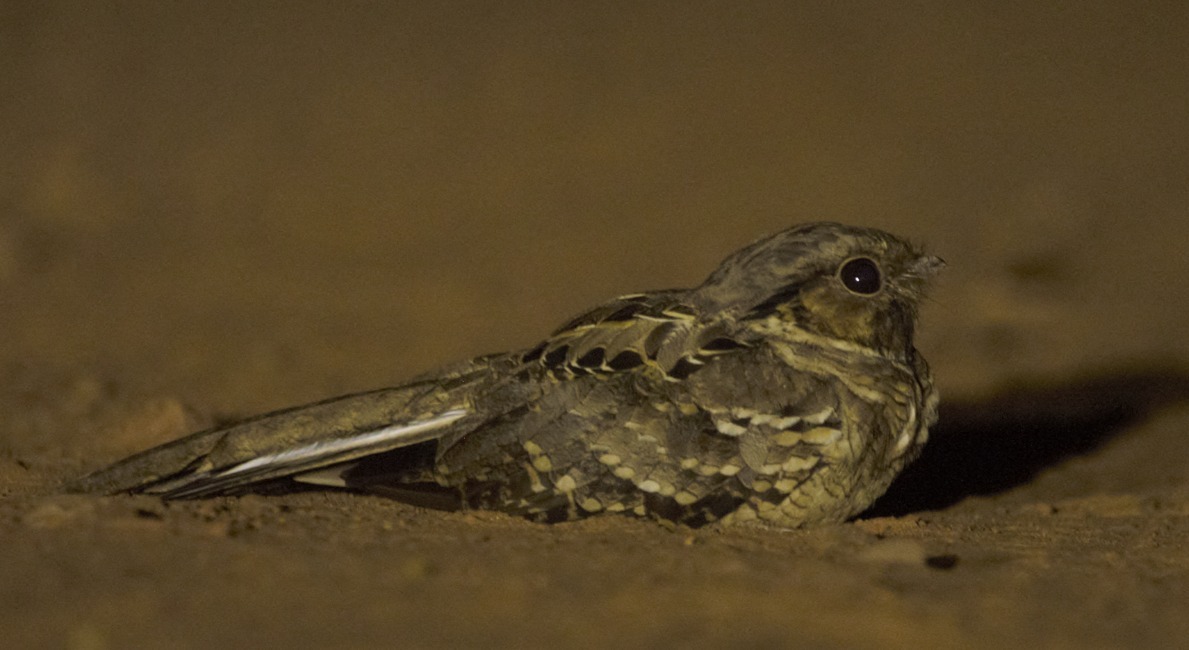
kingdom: Animalia
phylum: Chordata
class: Aves
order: Caprimulgiformes
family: Caprimulgidae
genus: Nyctidromus
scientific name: Nyctidromus albicollis
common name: Pauraque
